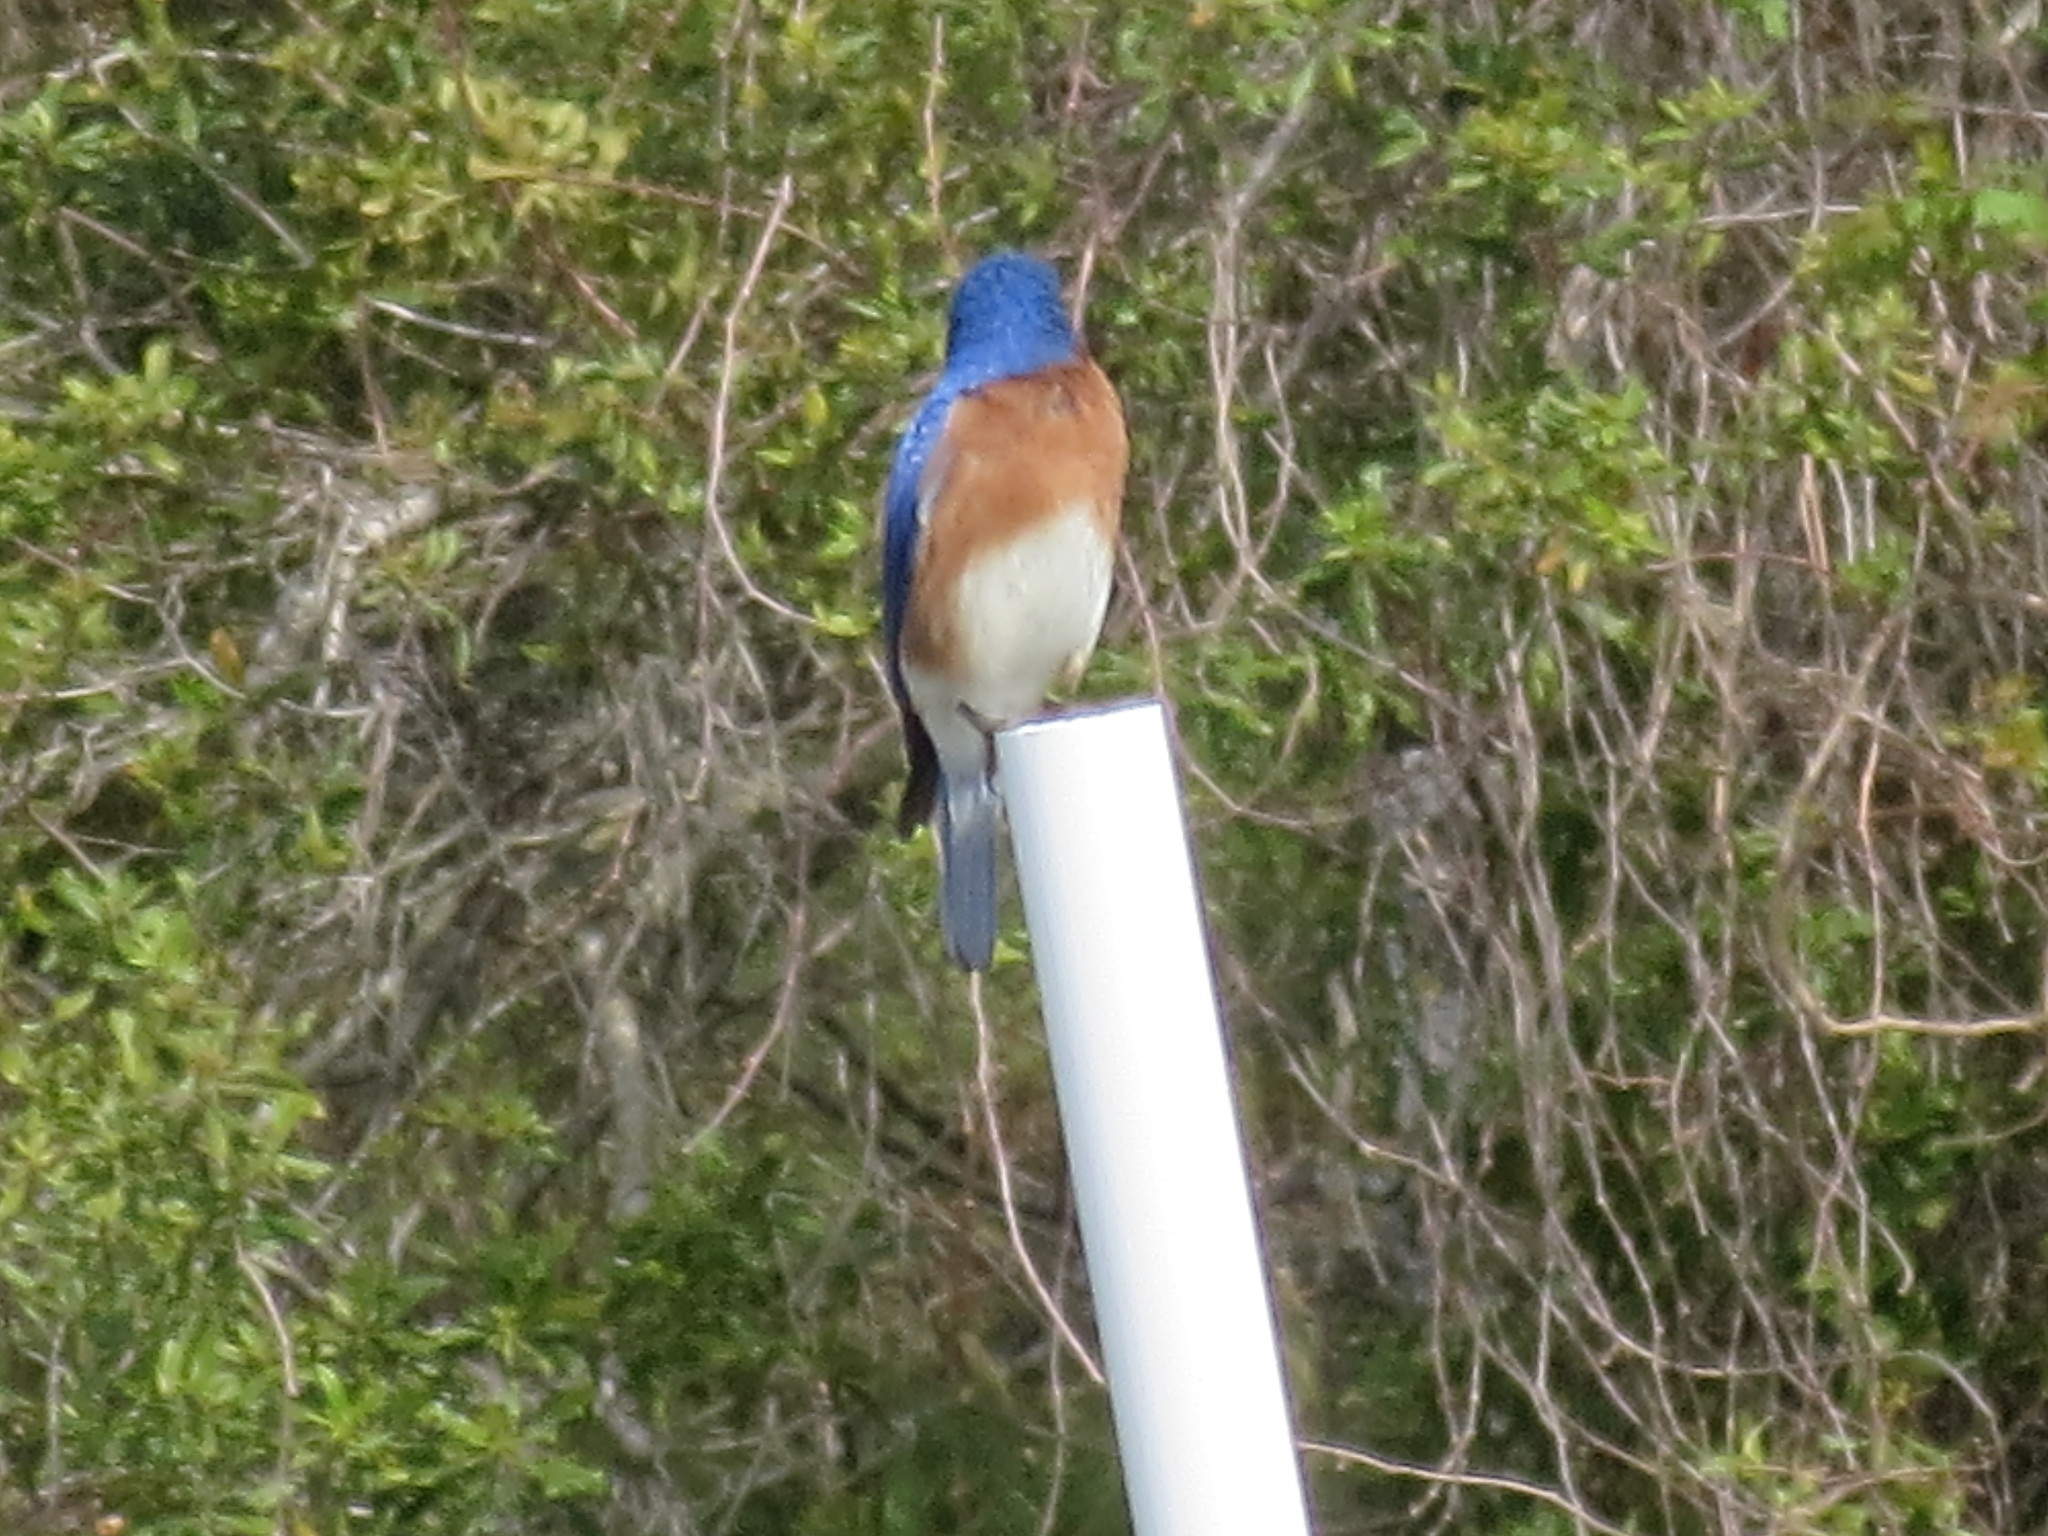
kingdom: Animalia
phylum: Chordata
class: Aves
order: Passeriformes
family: Turdidae
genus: Sialia
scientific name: Sialia sialis
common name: Eastern bluebird
